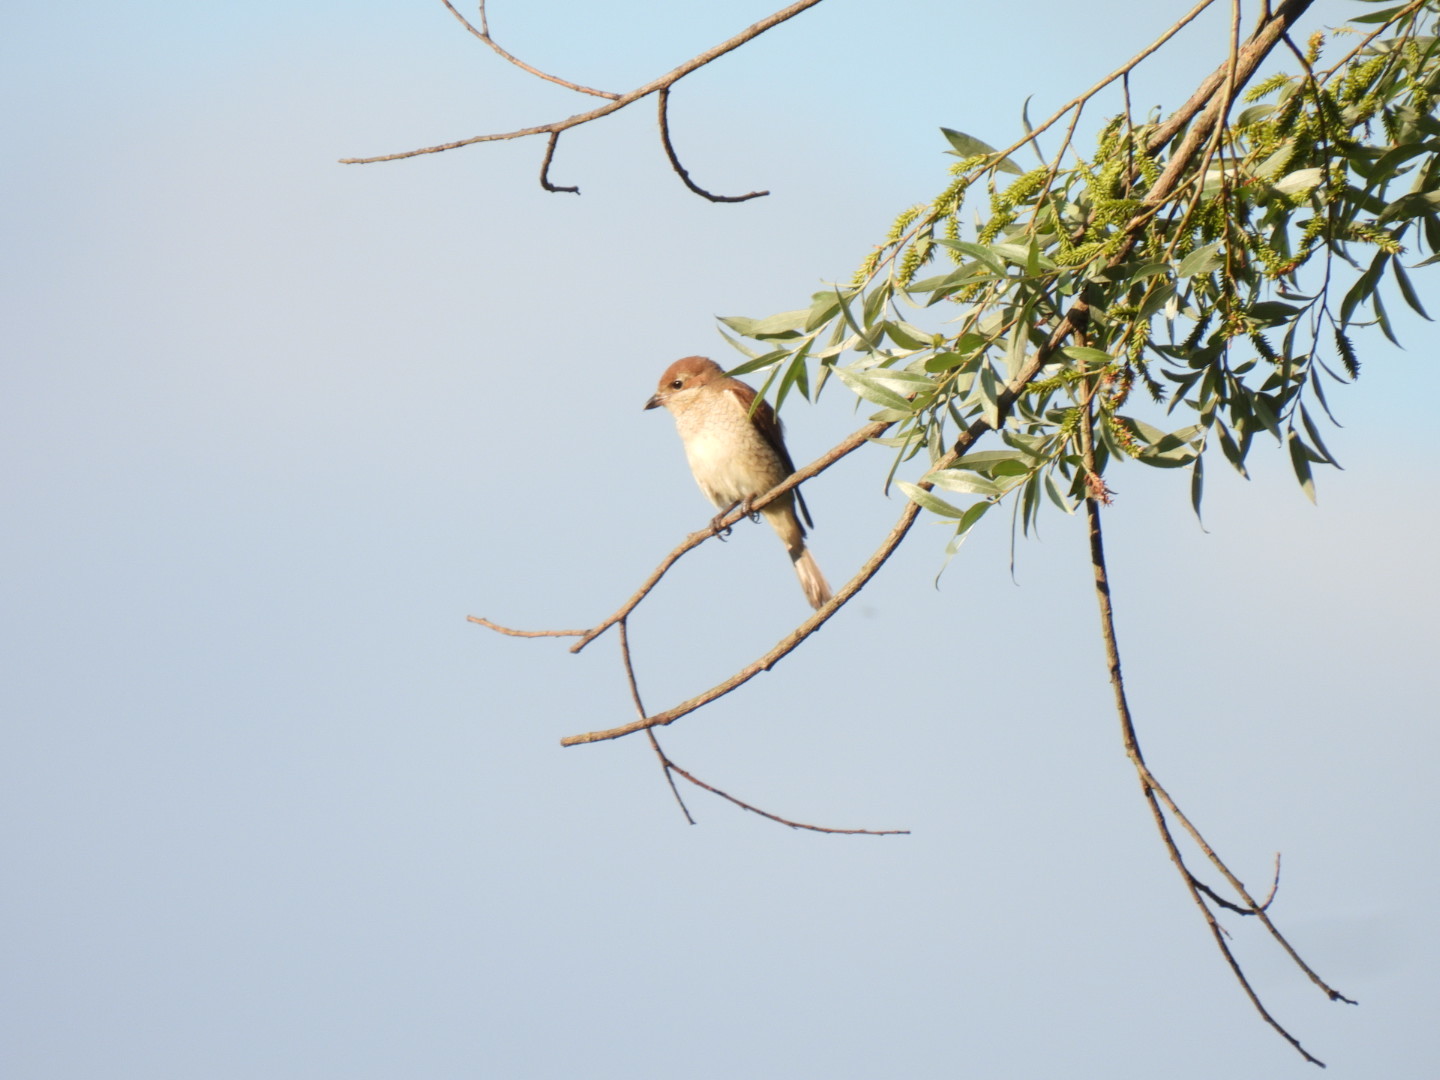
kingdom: Animalia
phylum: Chordata
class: Aves
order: Passeriformes
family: Laniidae
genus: Lanius
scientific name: Lanius collurio
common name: Red-backed shrike
